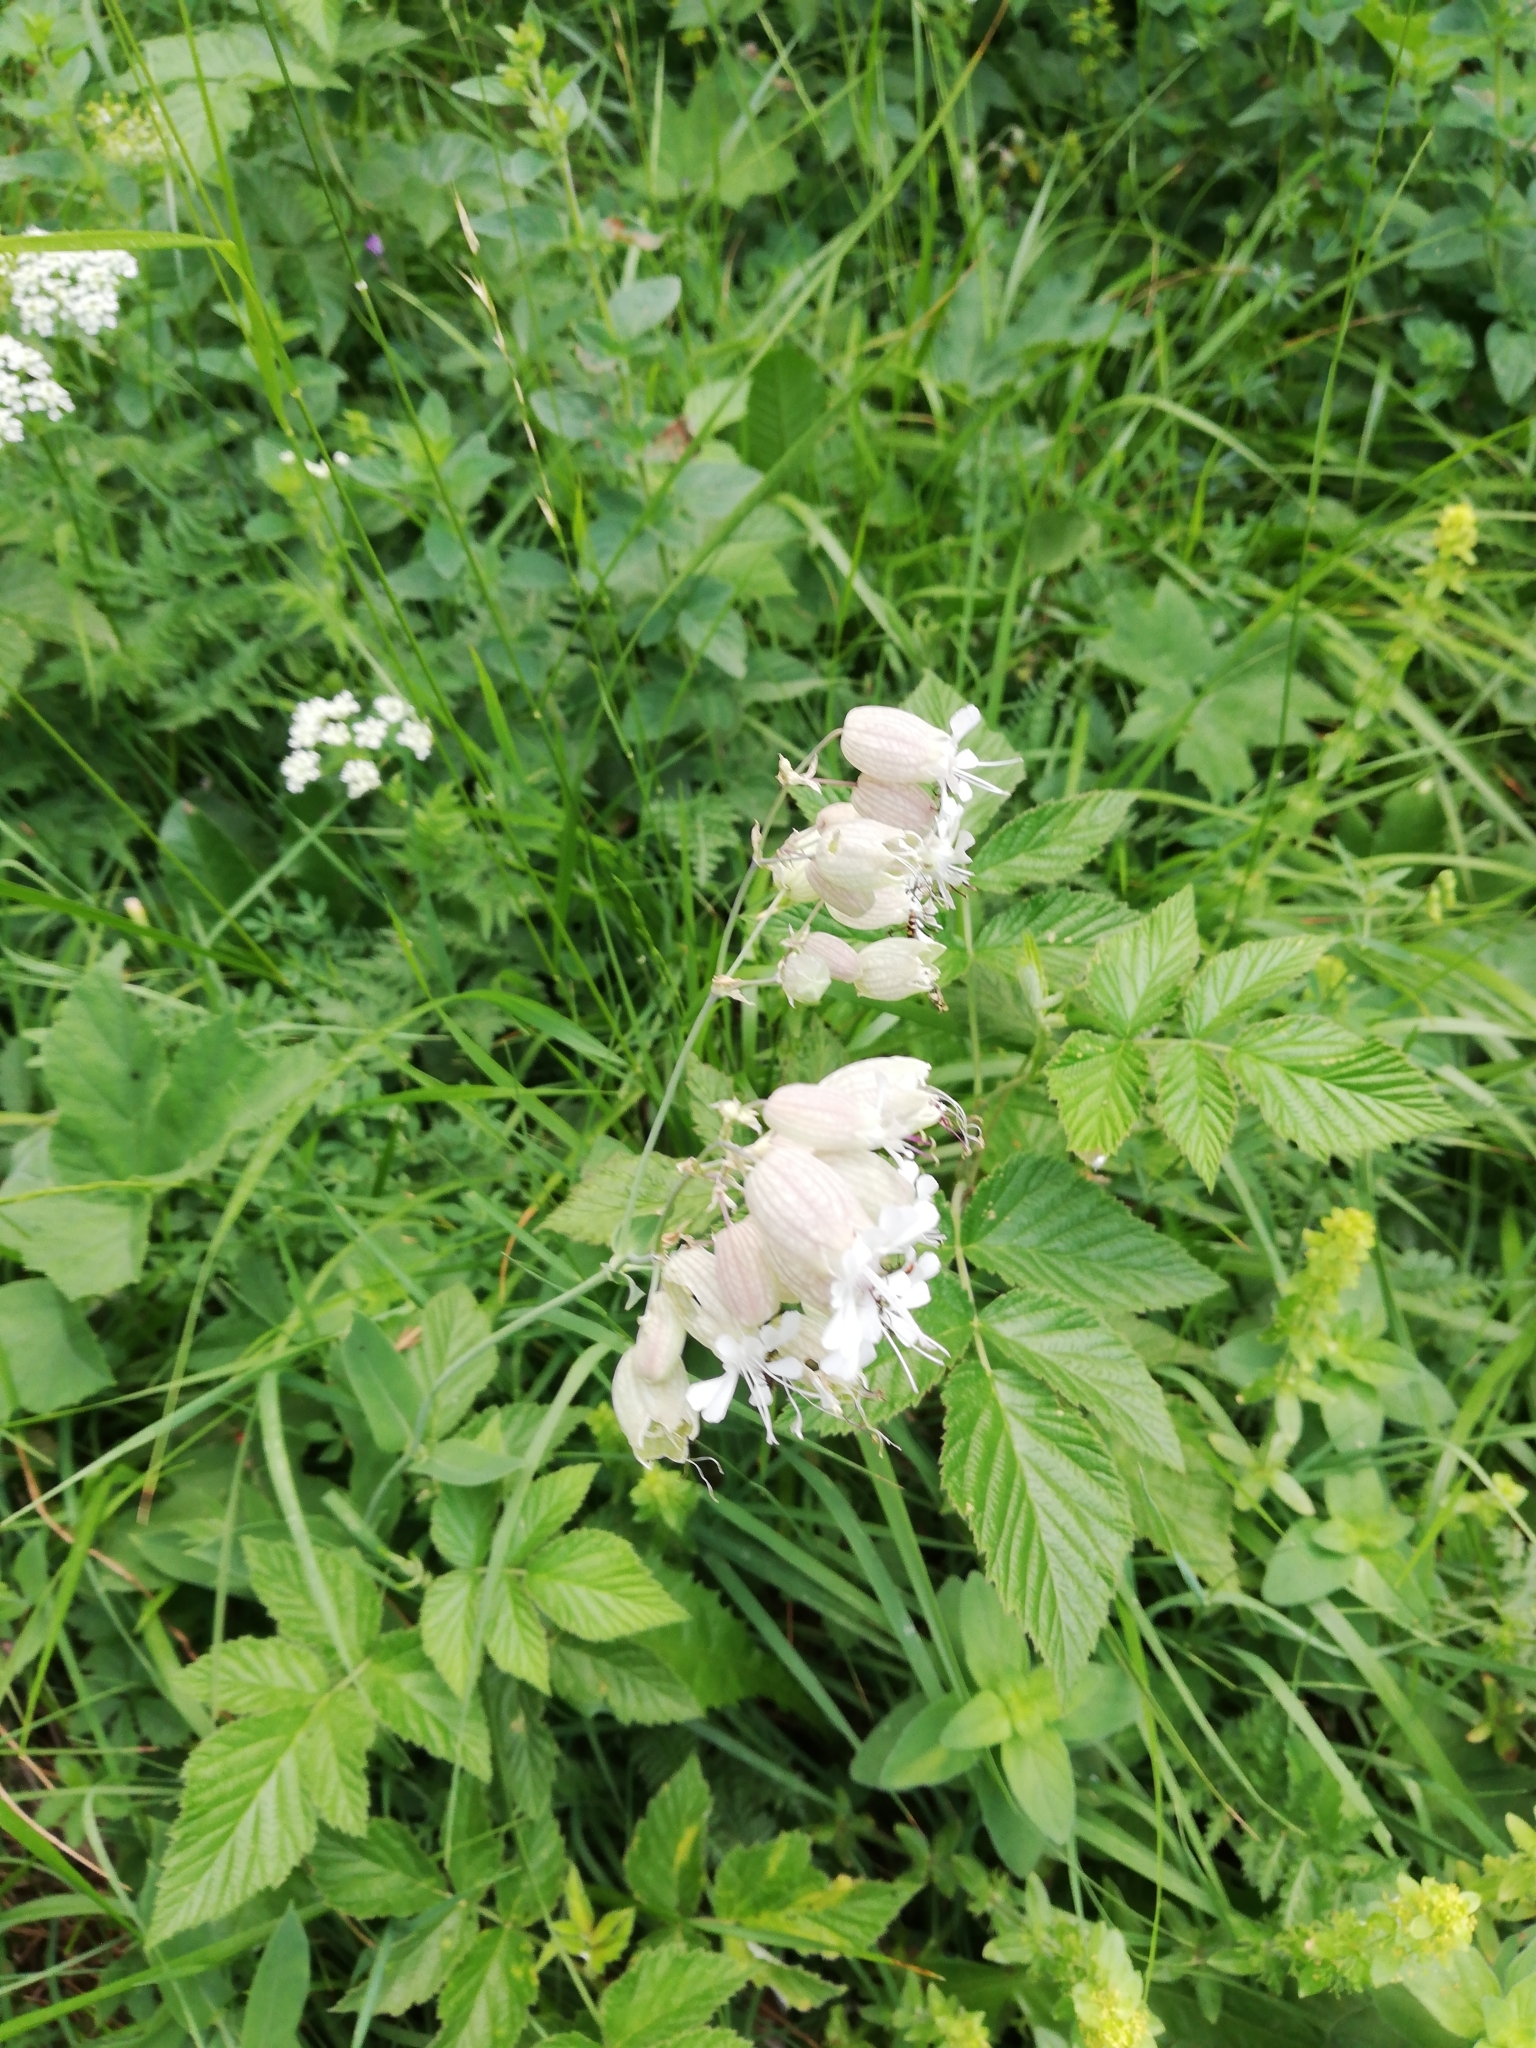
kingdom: Plantae
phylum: Tracheophyta
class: Magnoliopsida
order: Caryophyllales
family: Caryophyllaceae
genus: Silene
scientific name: Silene vulgaris
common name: Bladder campion
